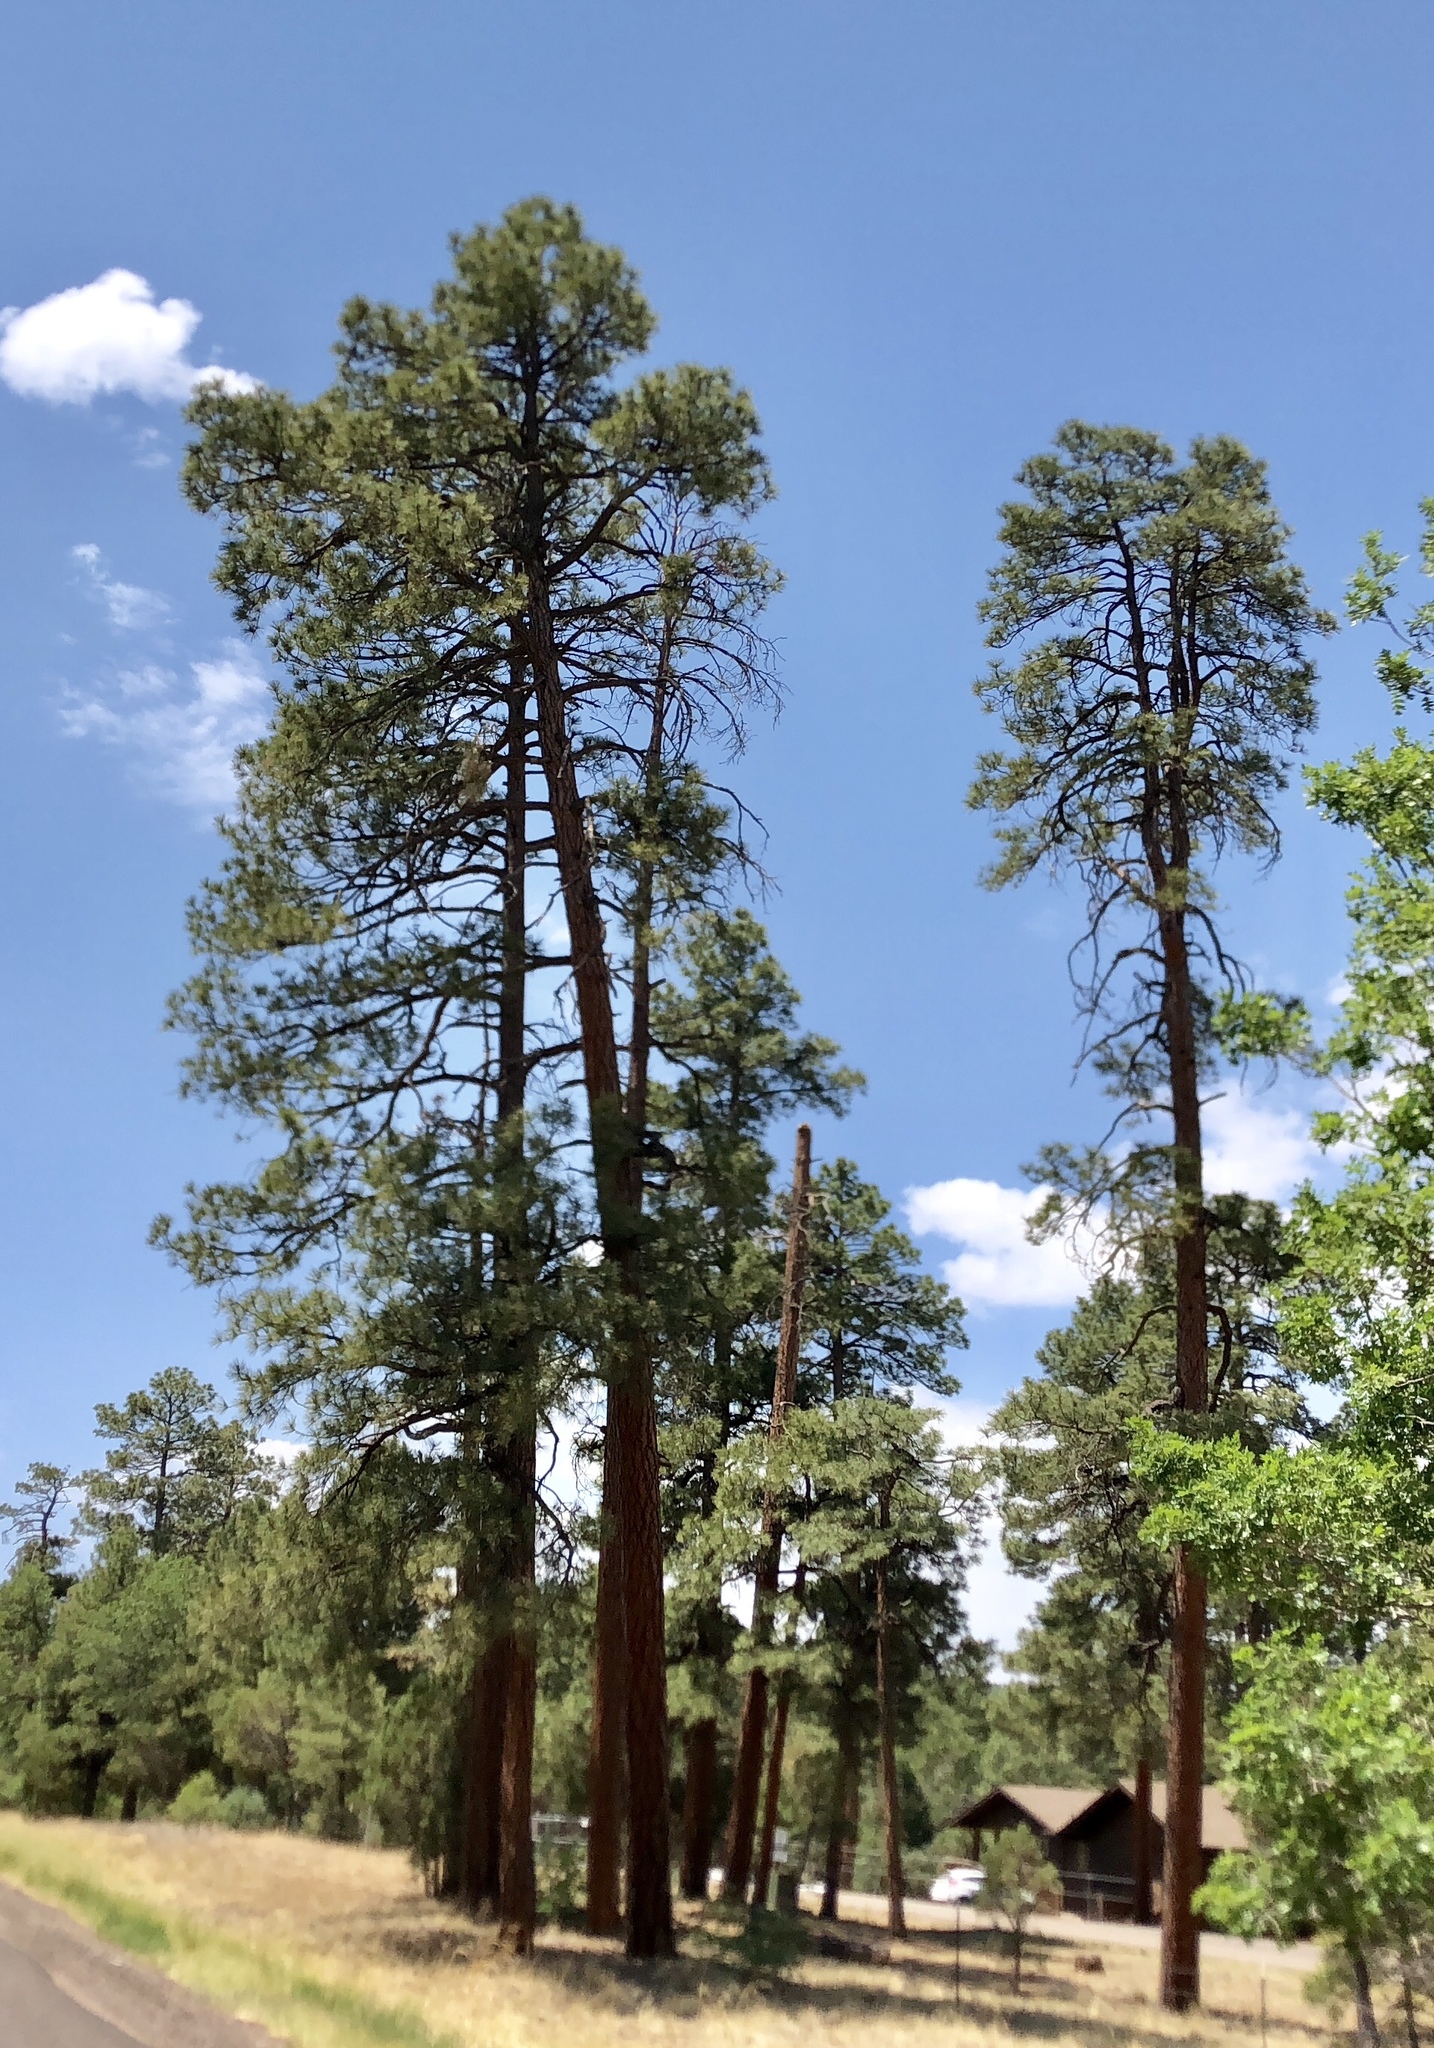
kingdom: Plantae
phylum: Tracheophyta
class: Pinopsida
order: Pinales
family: Pinaceae
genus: Pinus
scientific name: Pinus ponderosa
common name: Western yellow-pine
